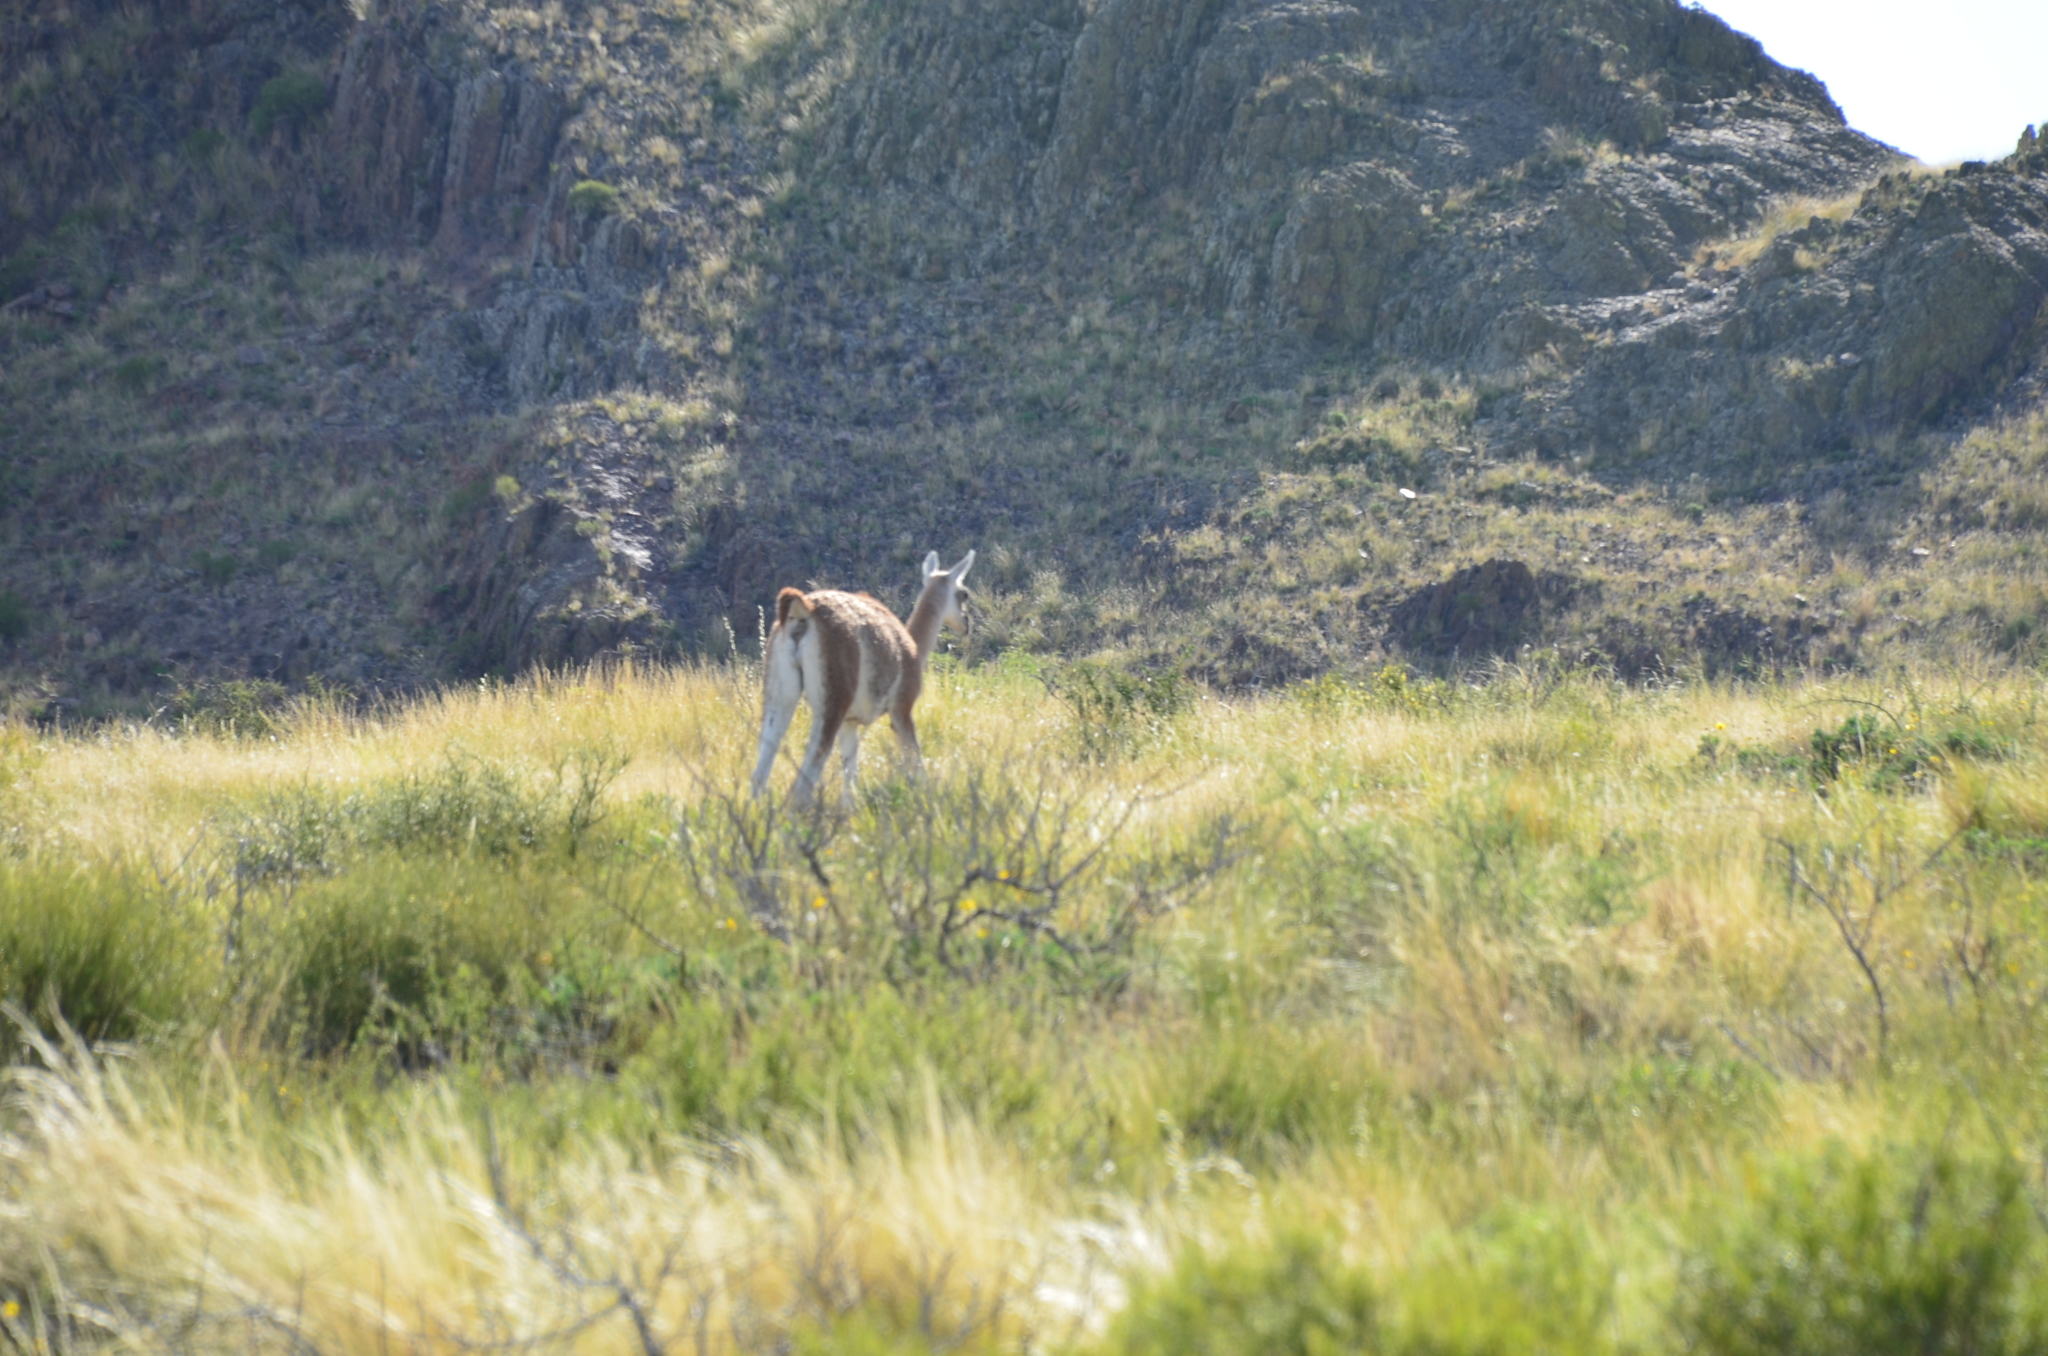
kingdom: Animalia
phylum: Chordata
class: Mammalia
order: Artiodactyla
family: Camelidae
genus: Lama
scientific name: Lama glama
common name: Llama
